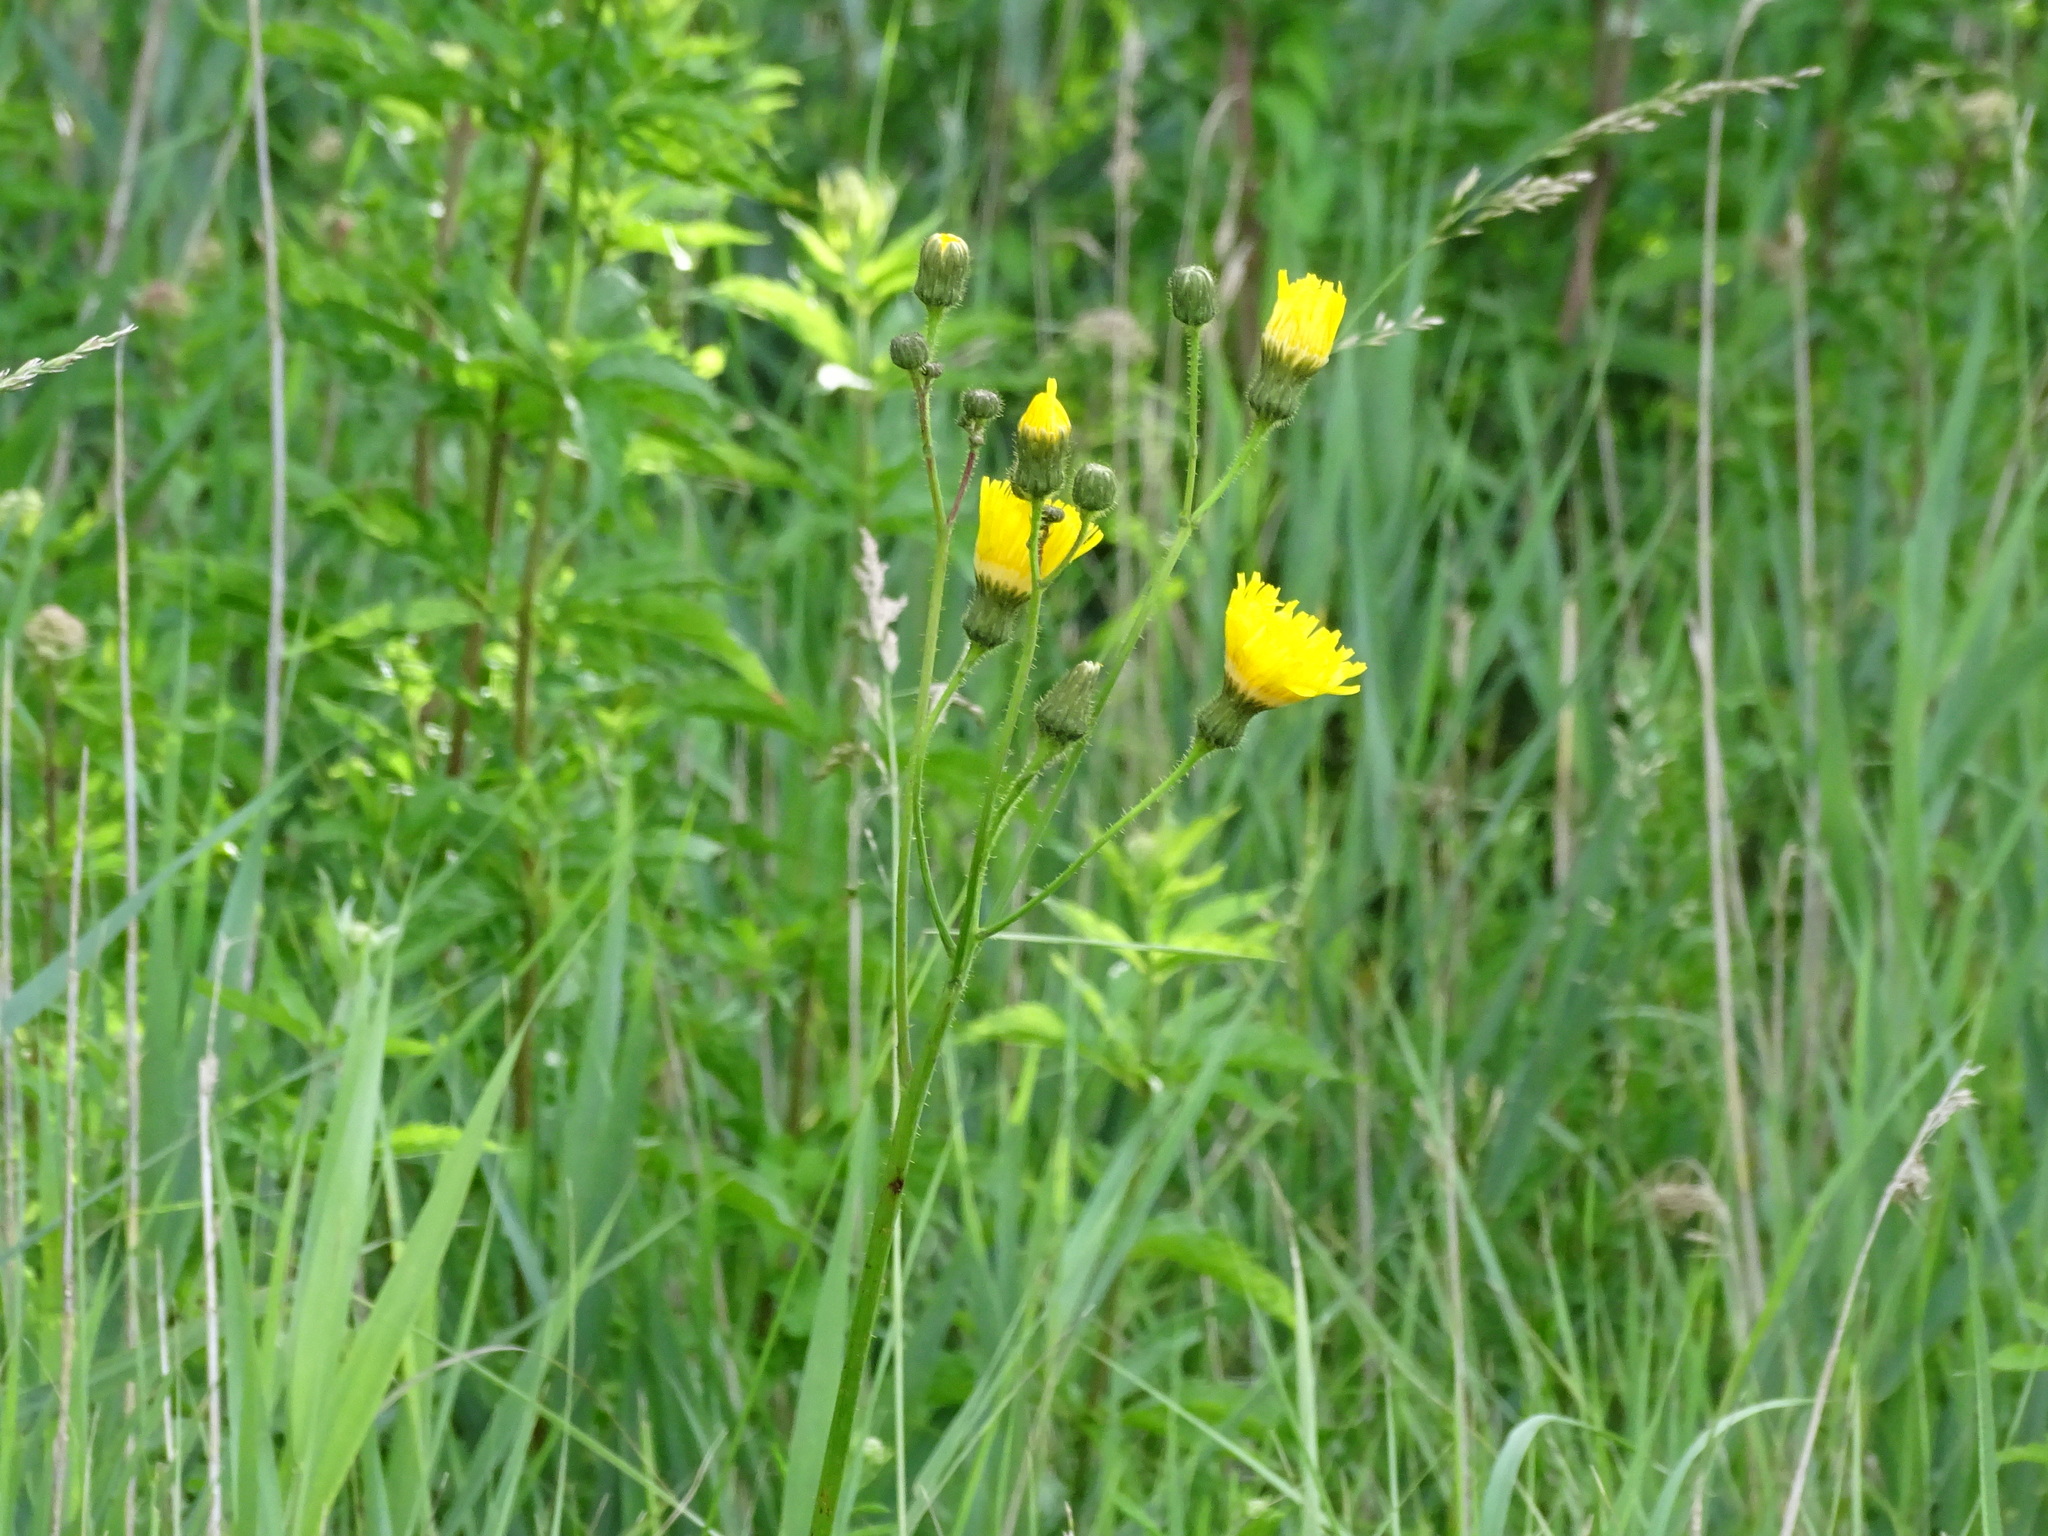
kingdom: Plantae
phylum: Tracheophyta
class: Magnoliopsida
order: Asterales
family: Asteraceae
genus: Sonchus
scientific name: Sonchus arvensis
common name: Perennial sow-thistle
